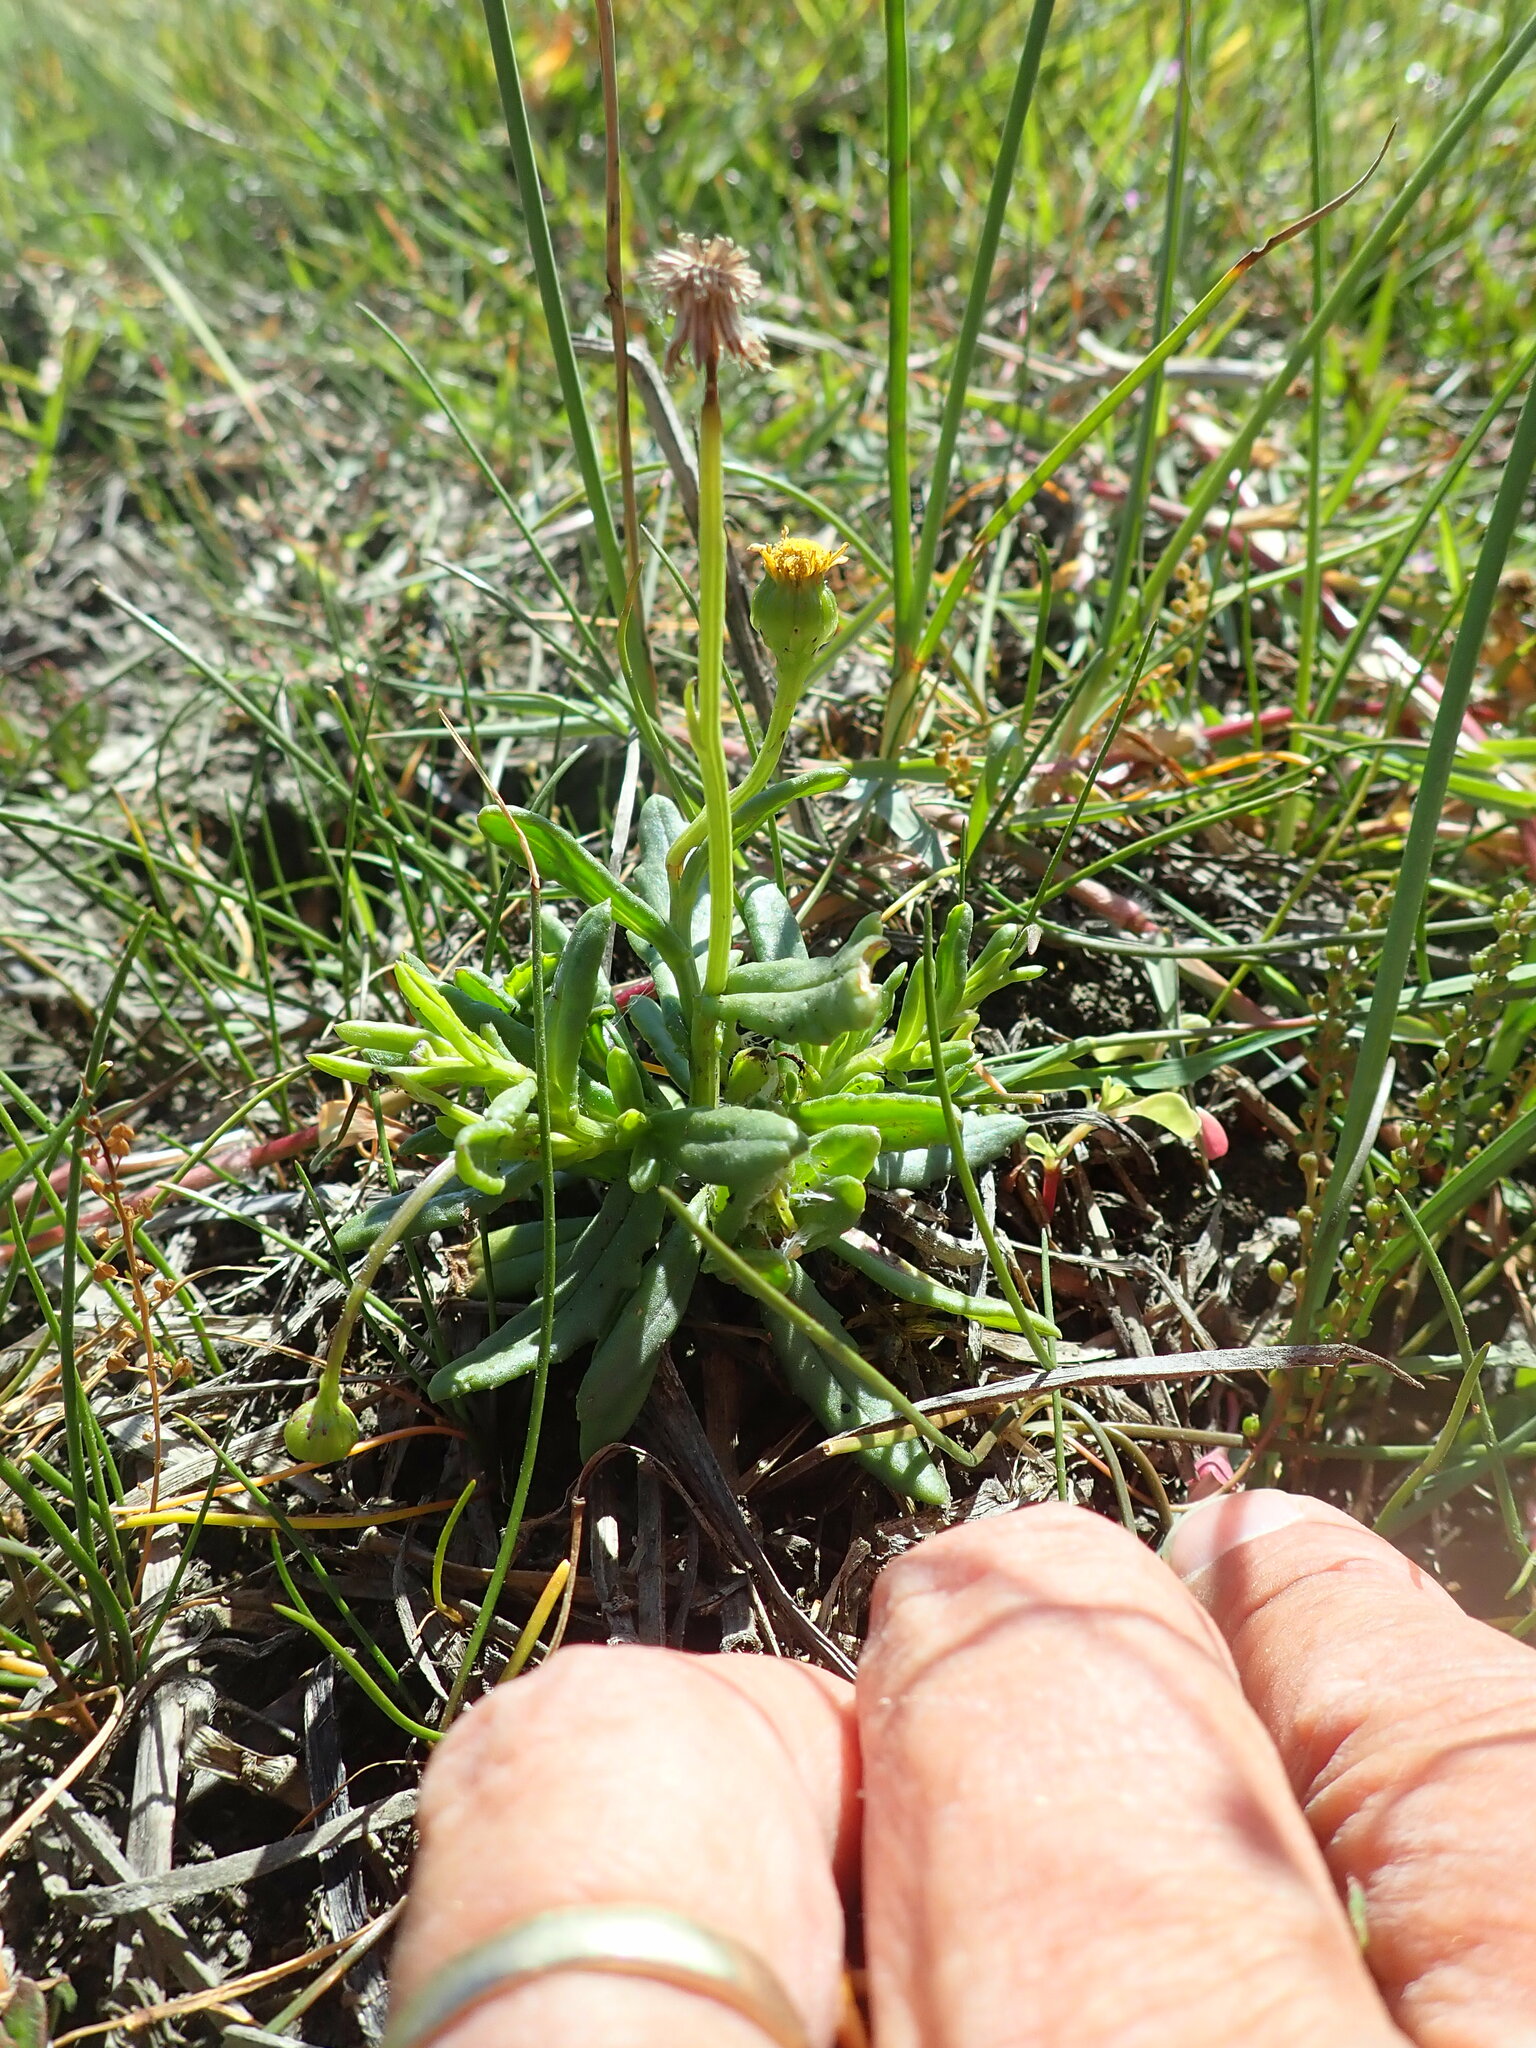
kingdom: Plantae
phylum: Tracheophyta
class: Magnoliopsida
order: Asterales
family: Asteraceae
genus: Senecio
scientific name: Senecio lautus
